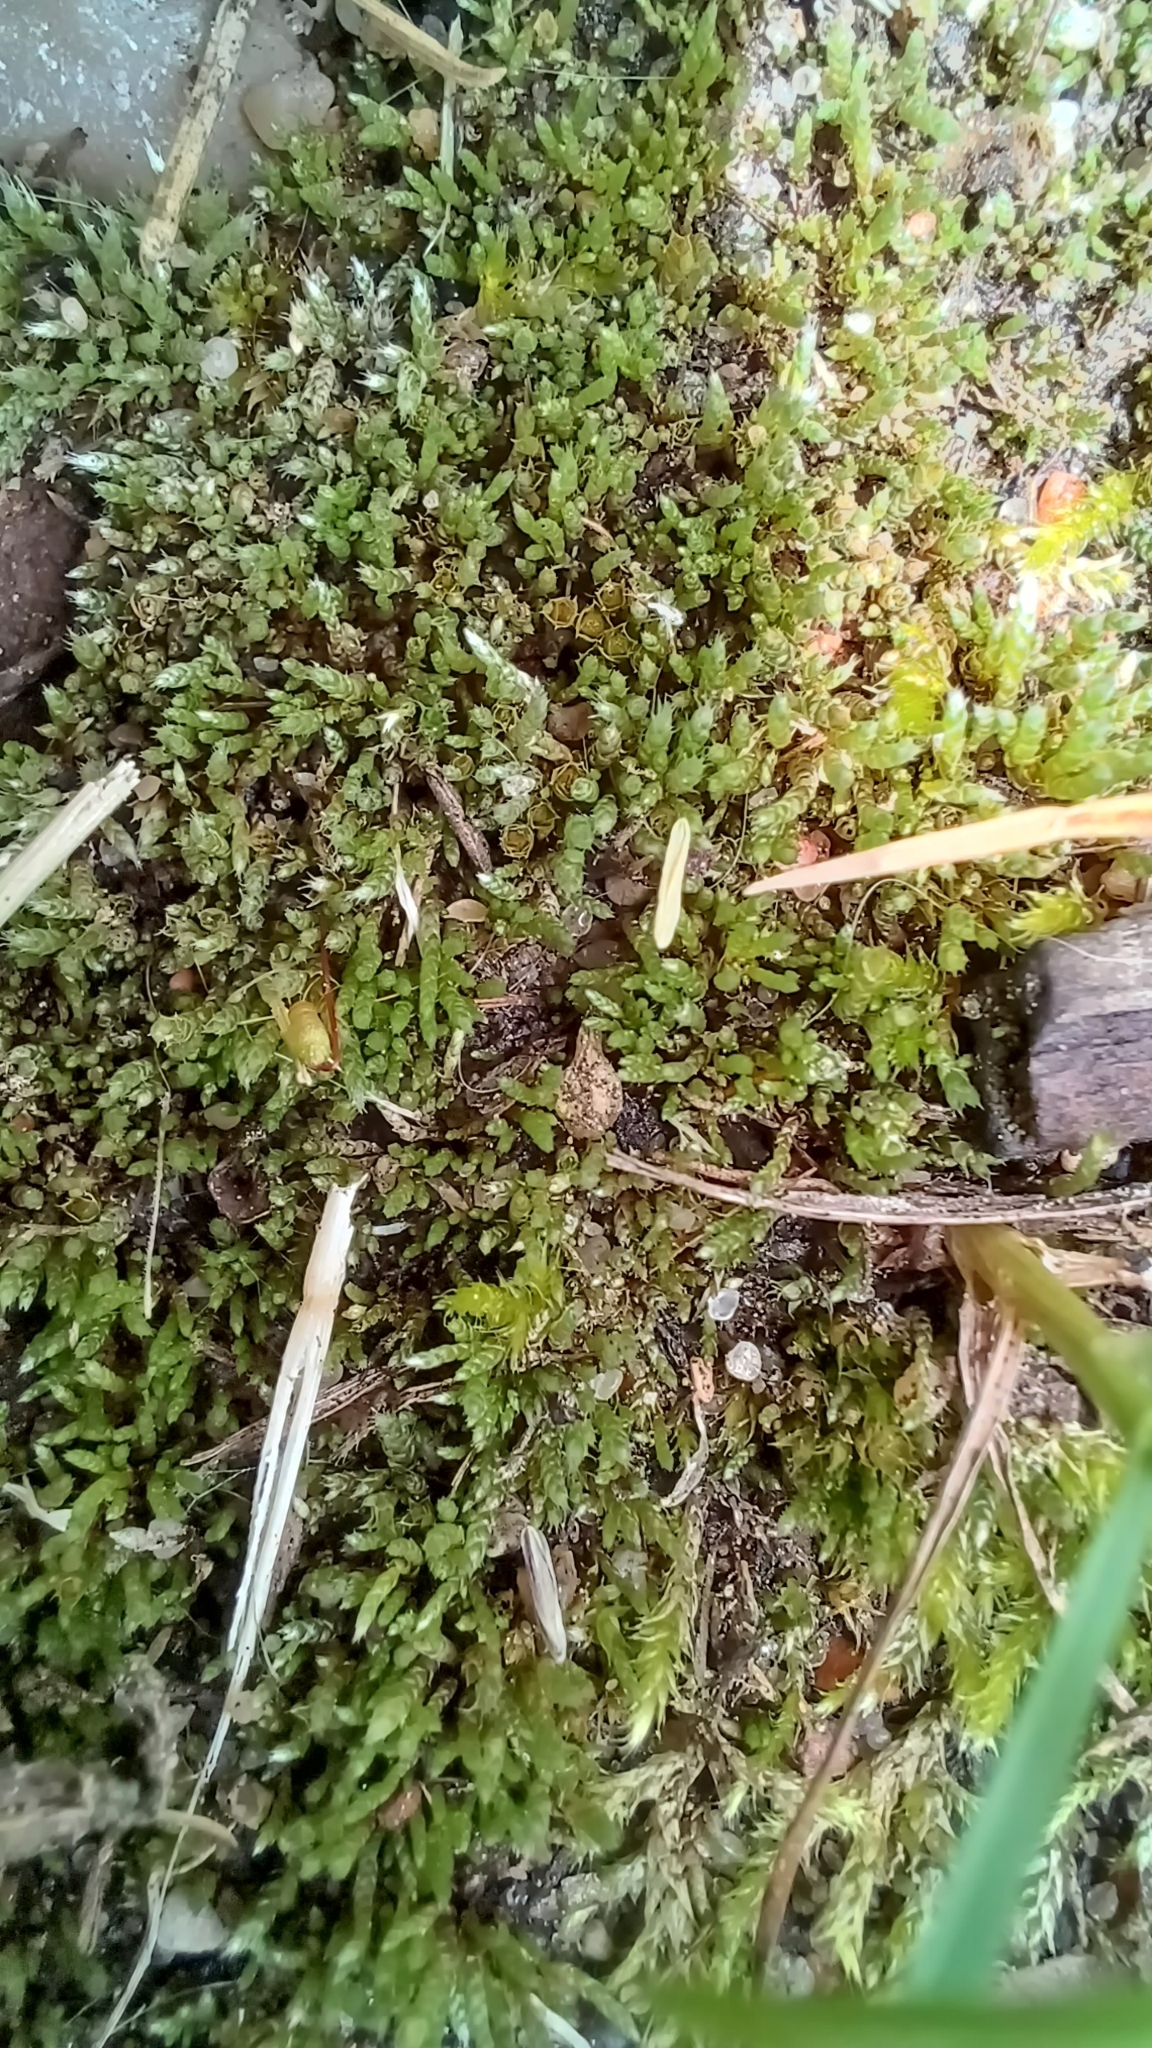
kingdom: Plantae
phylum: Bryophyta
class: Bryopsida
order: Bryales
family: Bryaceae
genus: Bryum
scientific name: Bryum argenteum
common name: Silver-moss
